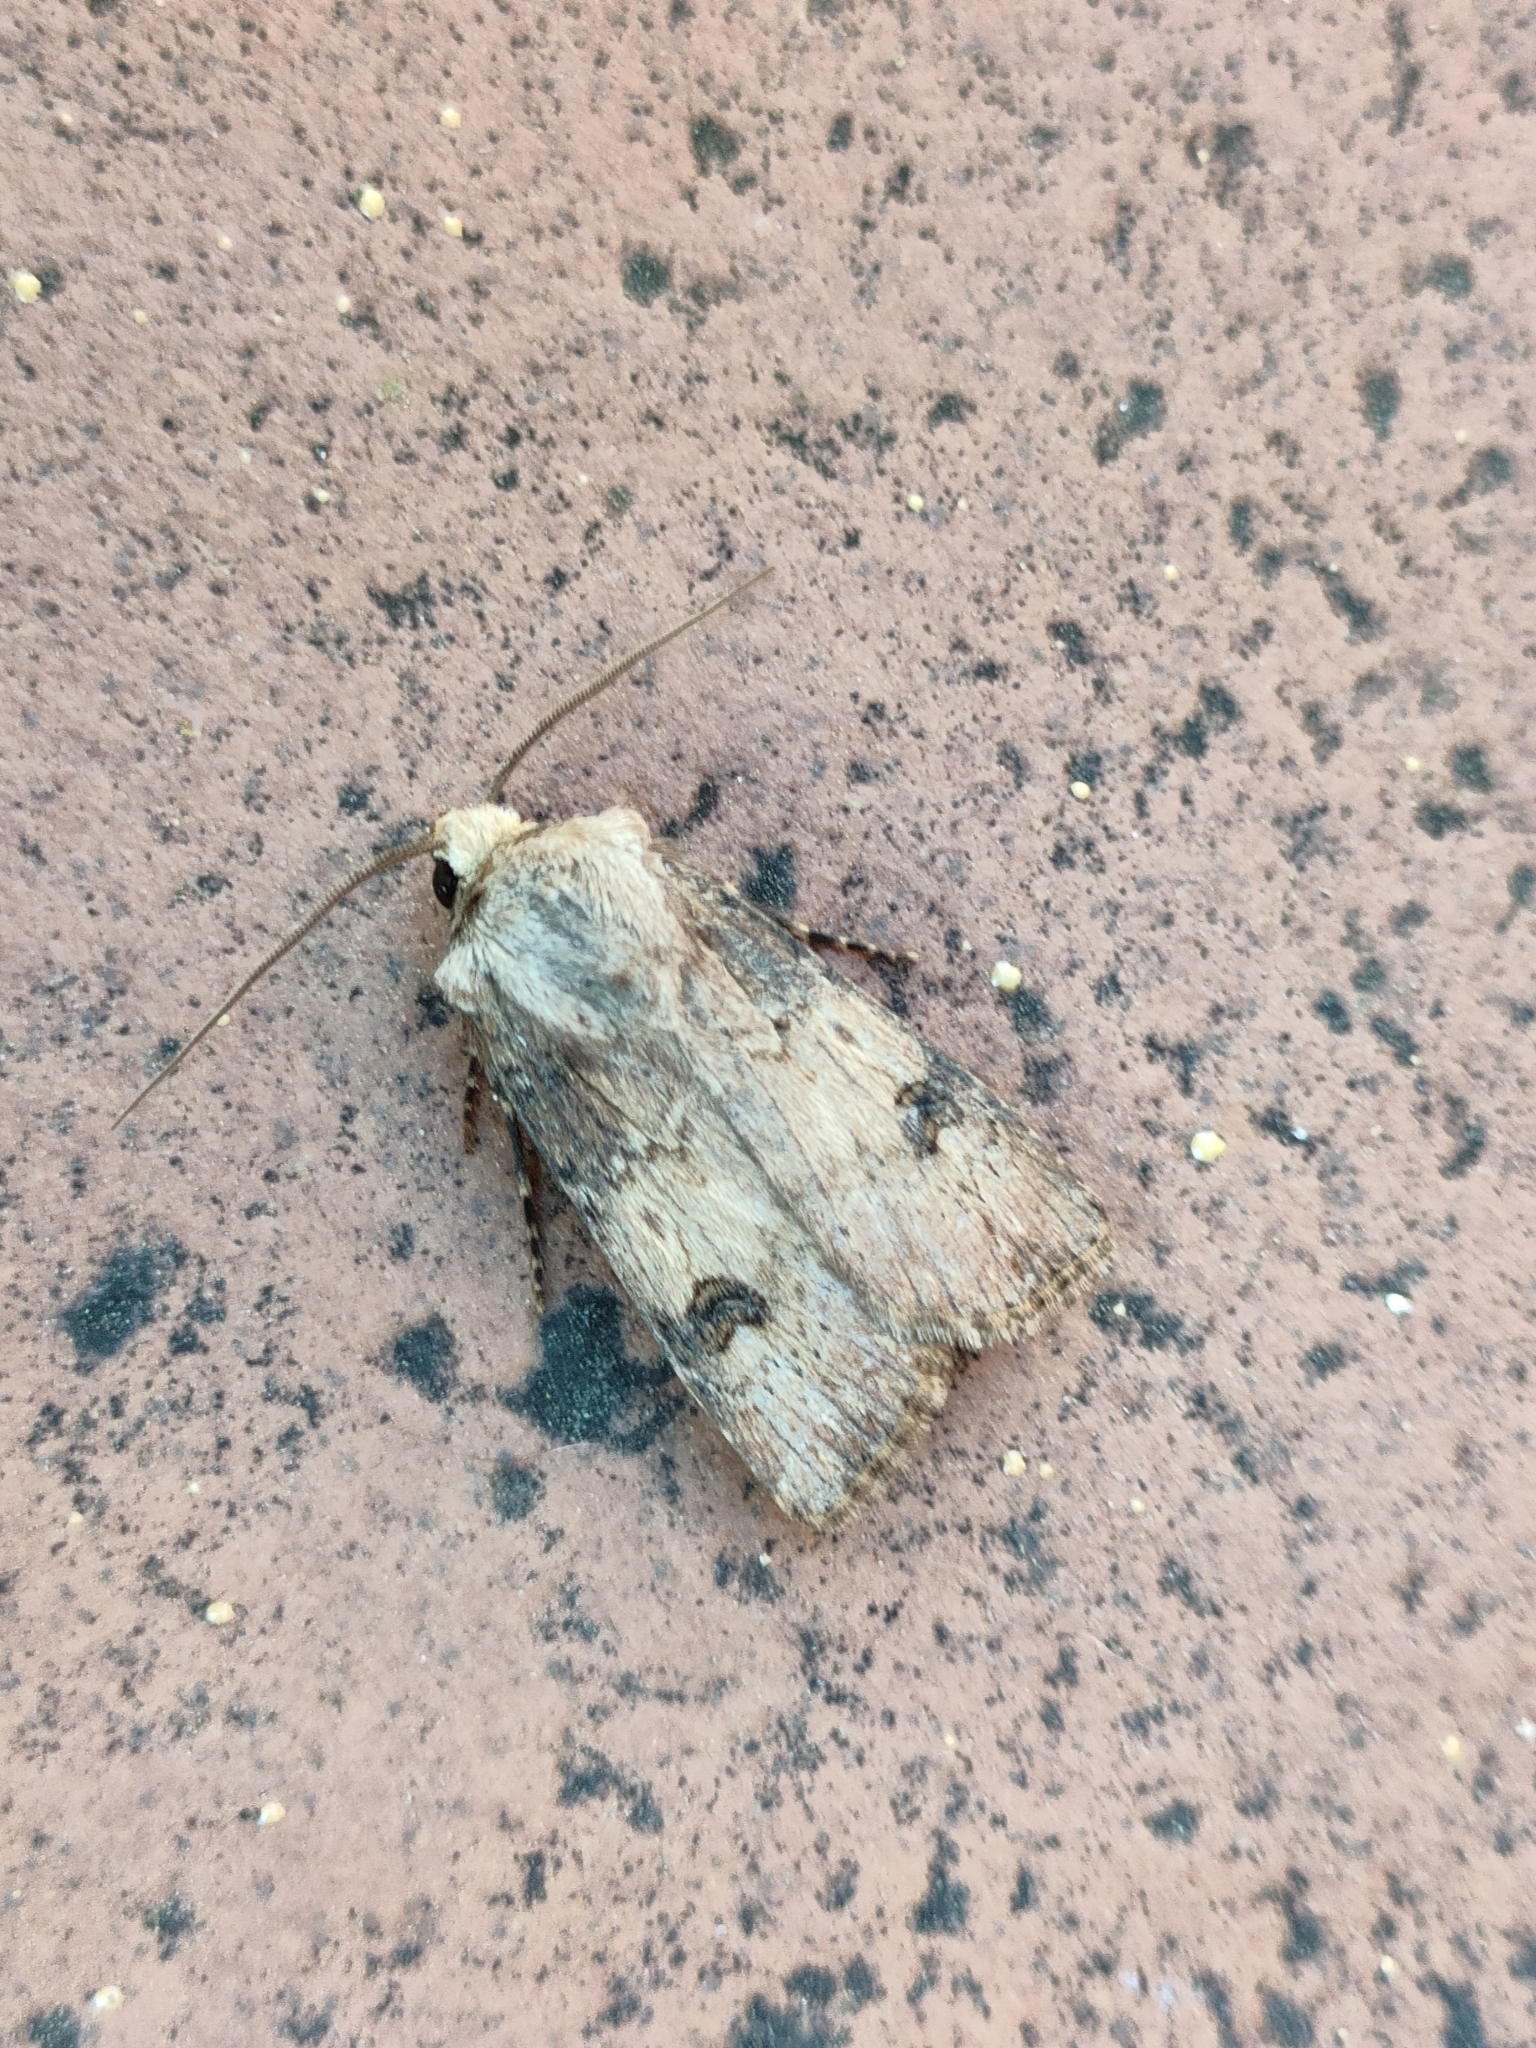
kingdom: Animalia
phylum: Arthropoda
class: Insecta
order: Lepidoptera
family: Noctuidae
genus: Agrotis
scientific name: Agrotis puta
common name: Shuttle-shaped dart
